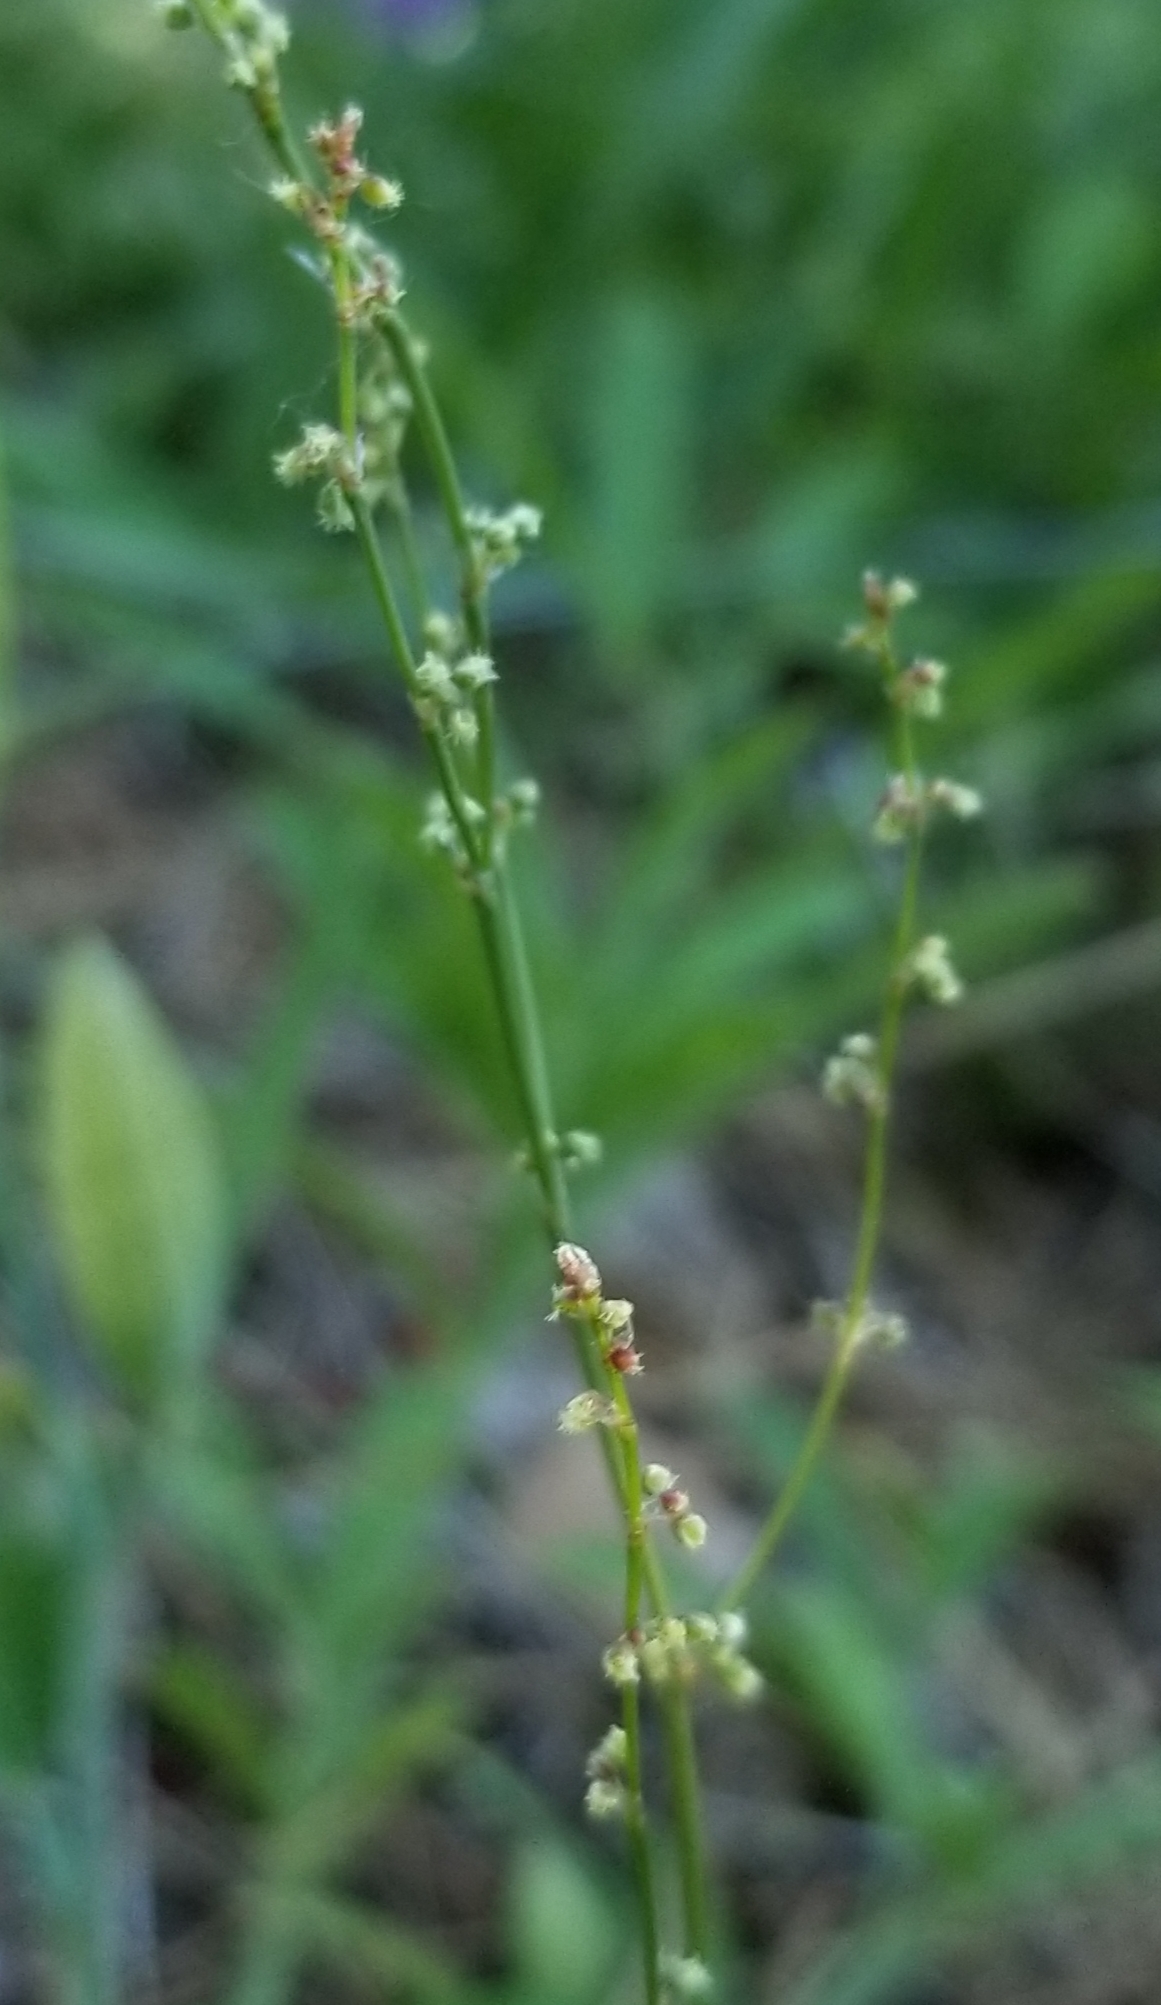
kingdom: Plantae
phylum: Tracheophyta
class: Magnoliopsida
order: Caryophyllales
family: Polygonaceae
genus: Rumex
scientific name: Rumex acetosella
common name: Common sheep sorrel
